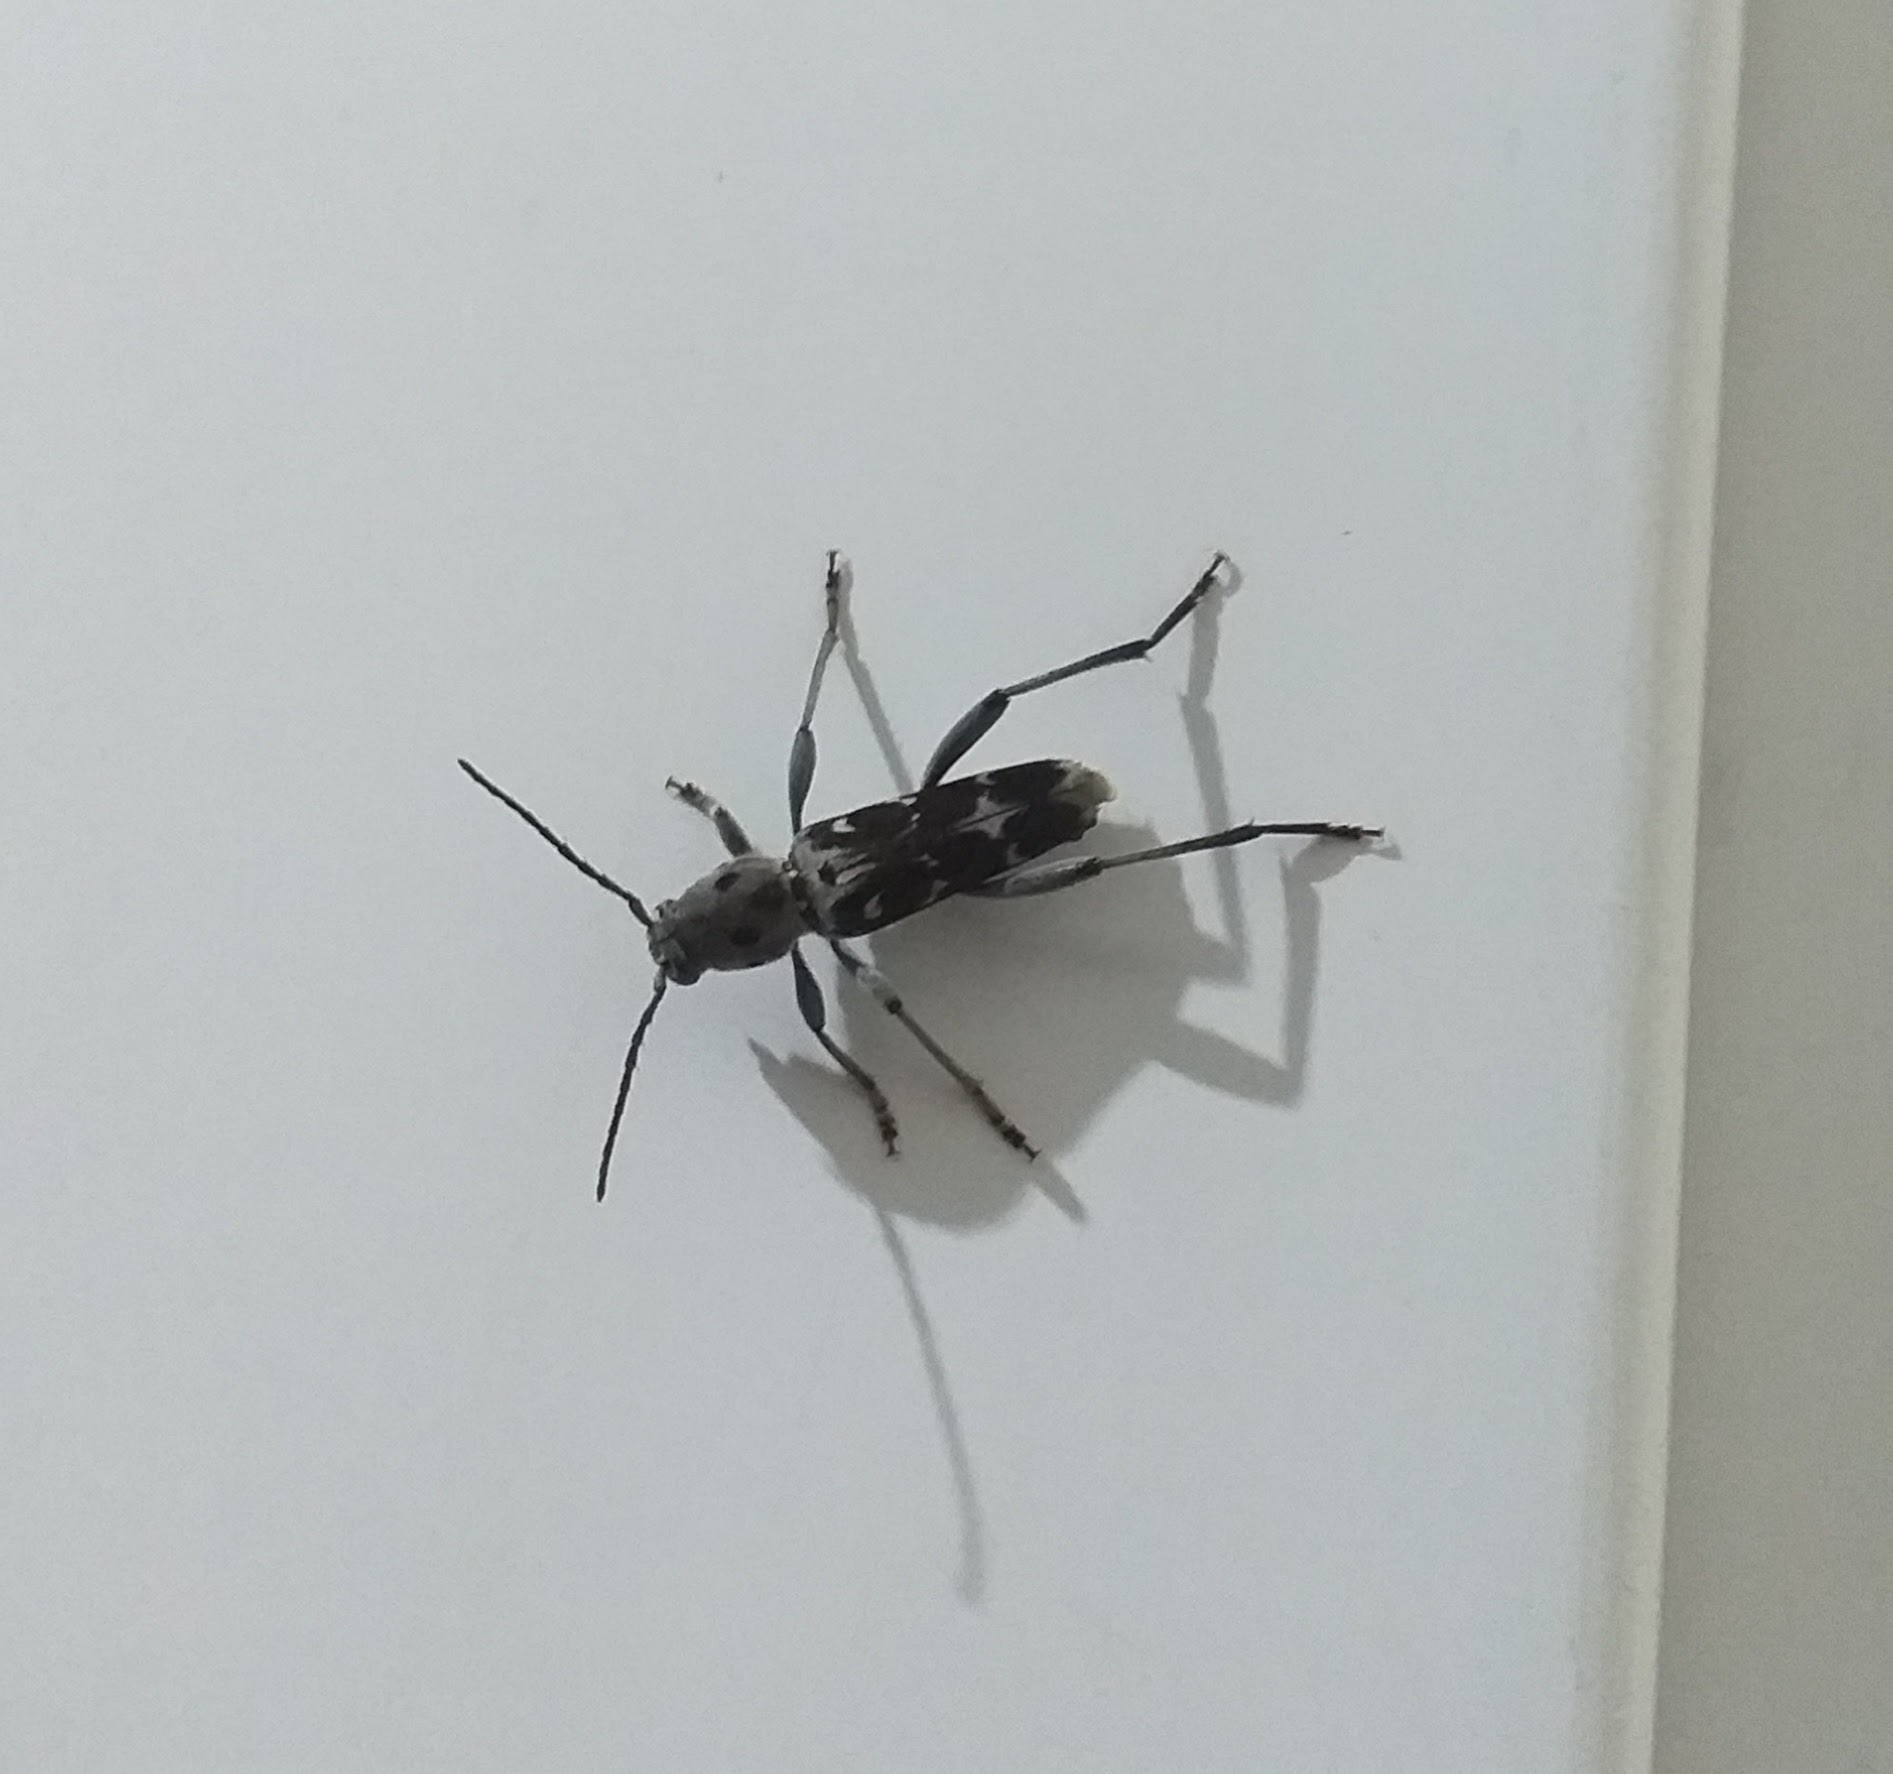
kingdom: Animalia
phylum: Arthropoda
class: Insecta
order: Coleoptera
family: Cerambycidae
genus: Xylotrechus
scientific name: Xylotrechus smei
